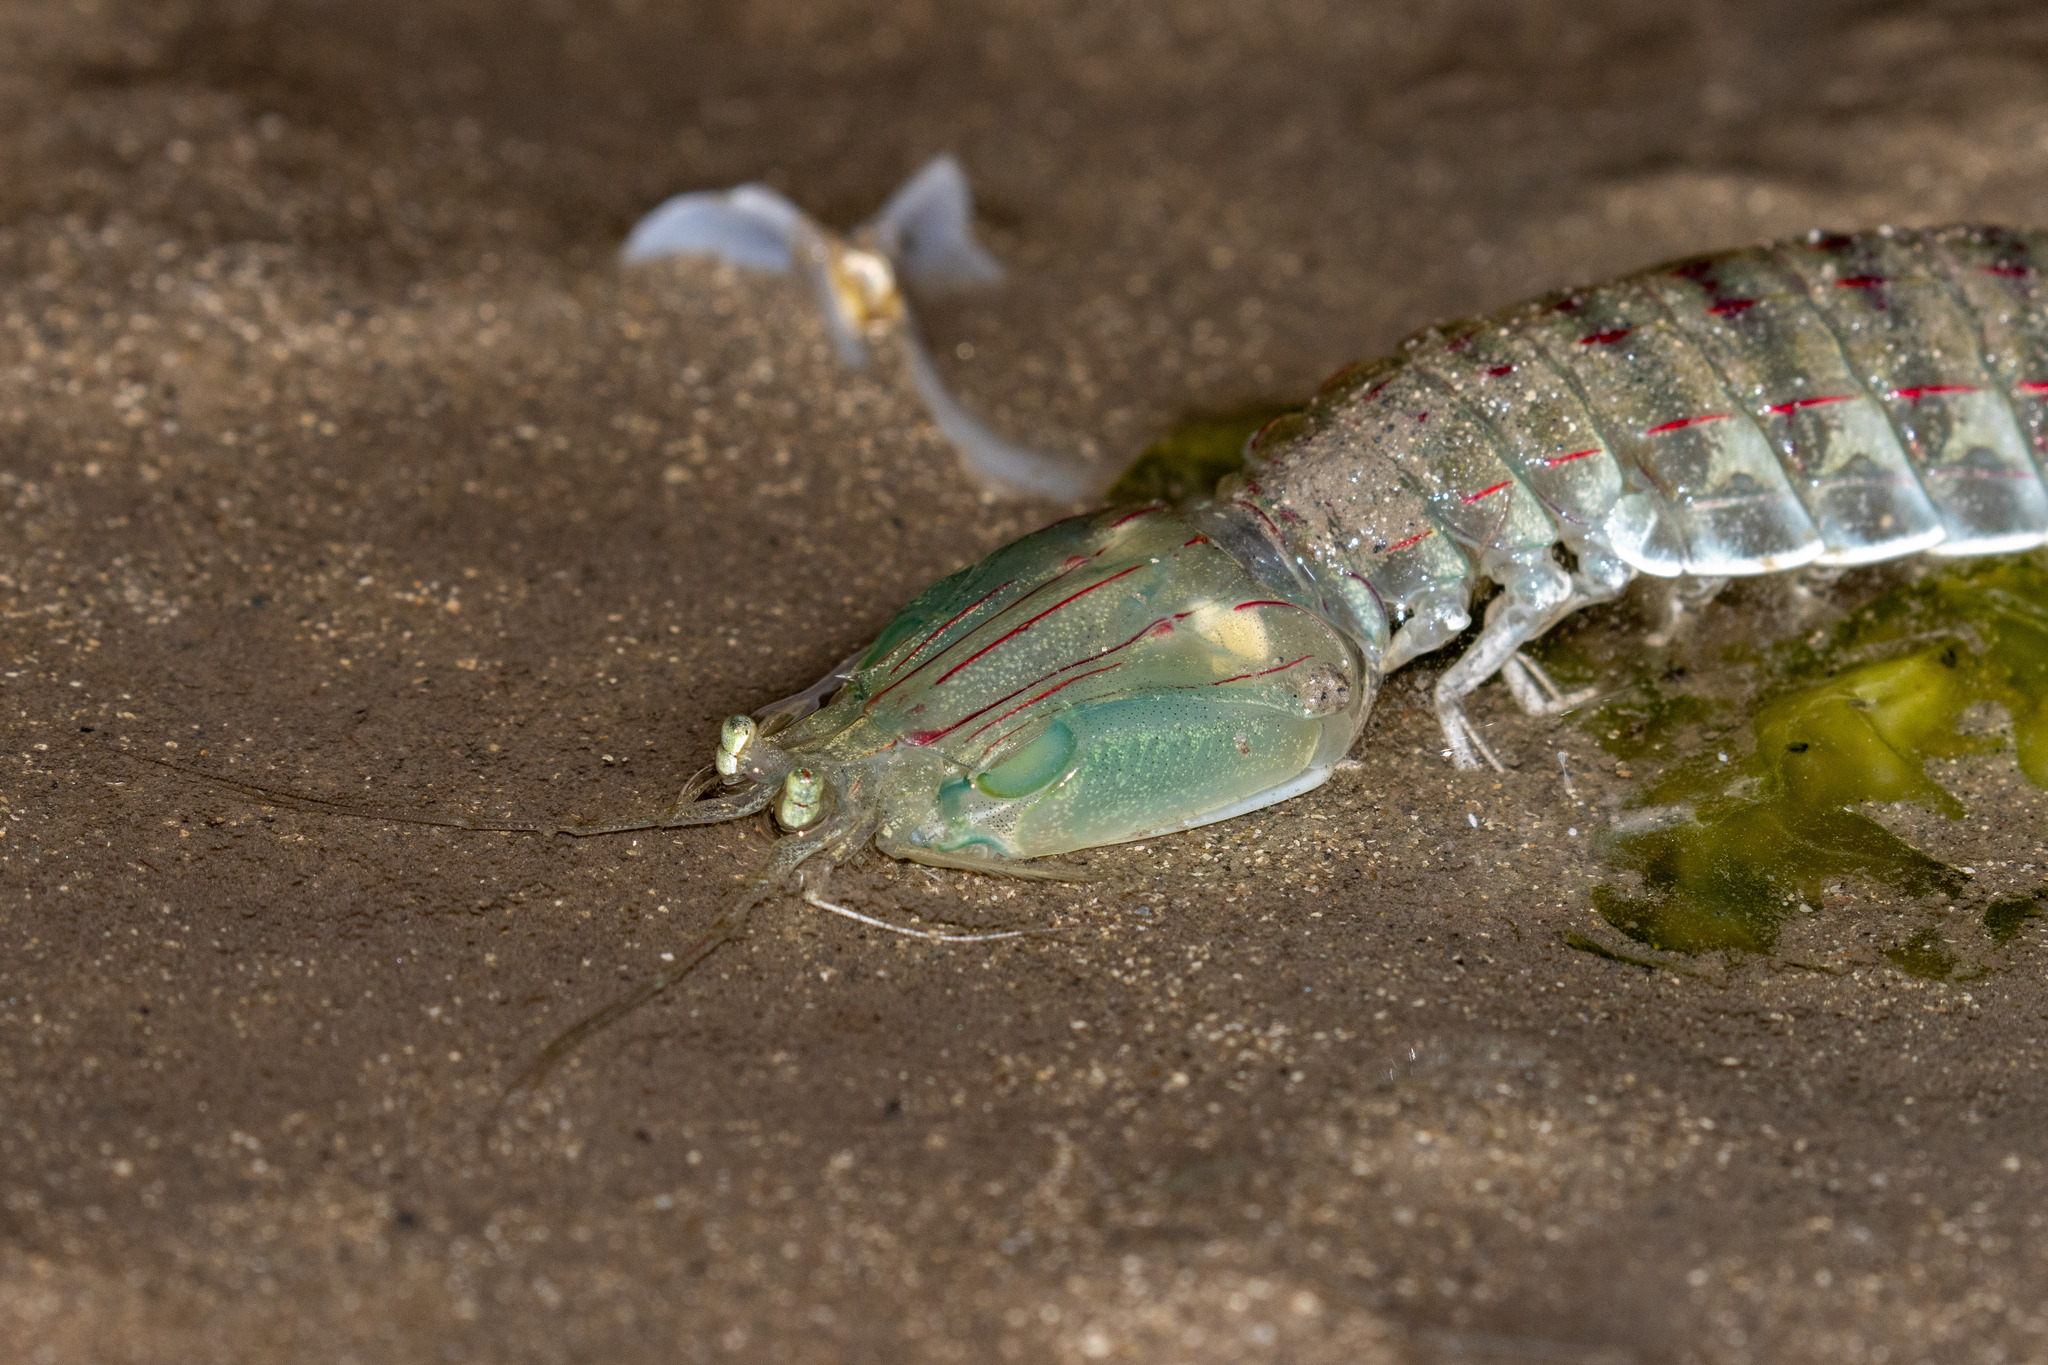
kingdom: Animalia
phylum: Arthropoda
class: Malacostraca
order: Stomatopoda
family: Squillidae
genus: Cloridopsis
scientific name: Cloridopsis dubia
